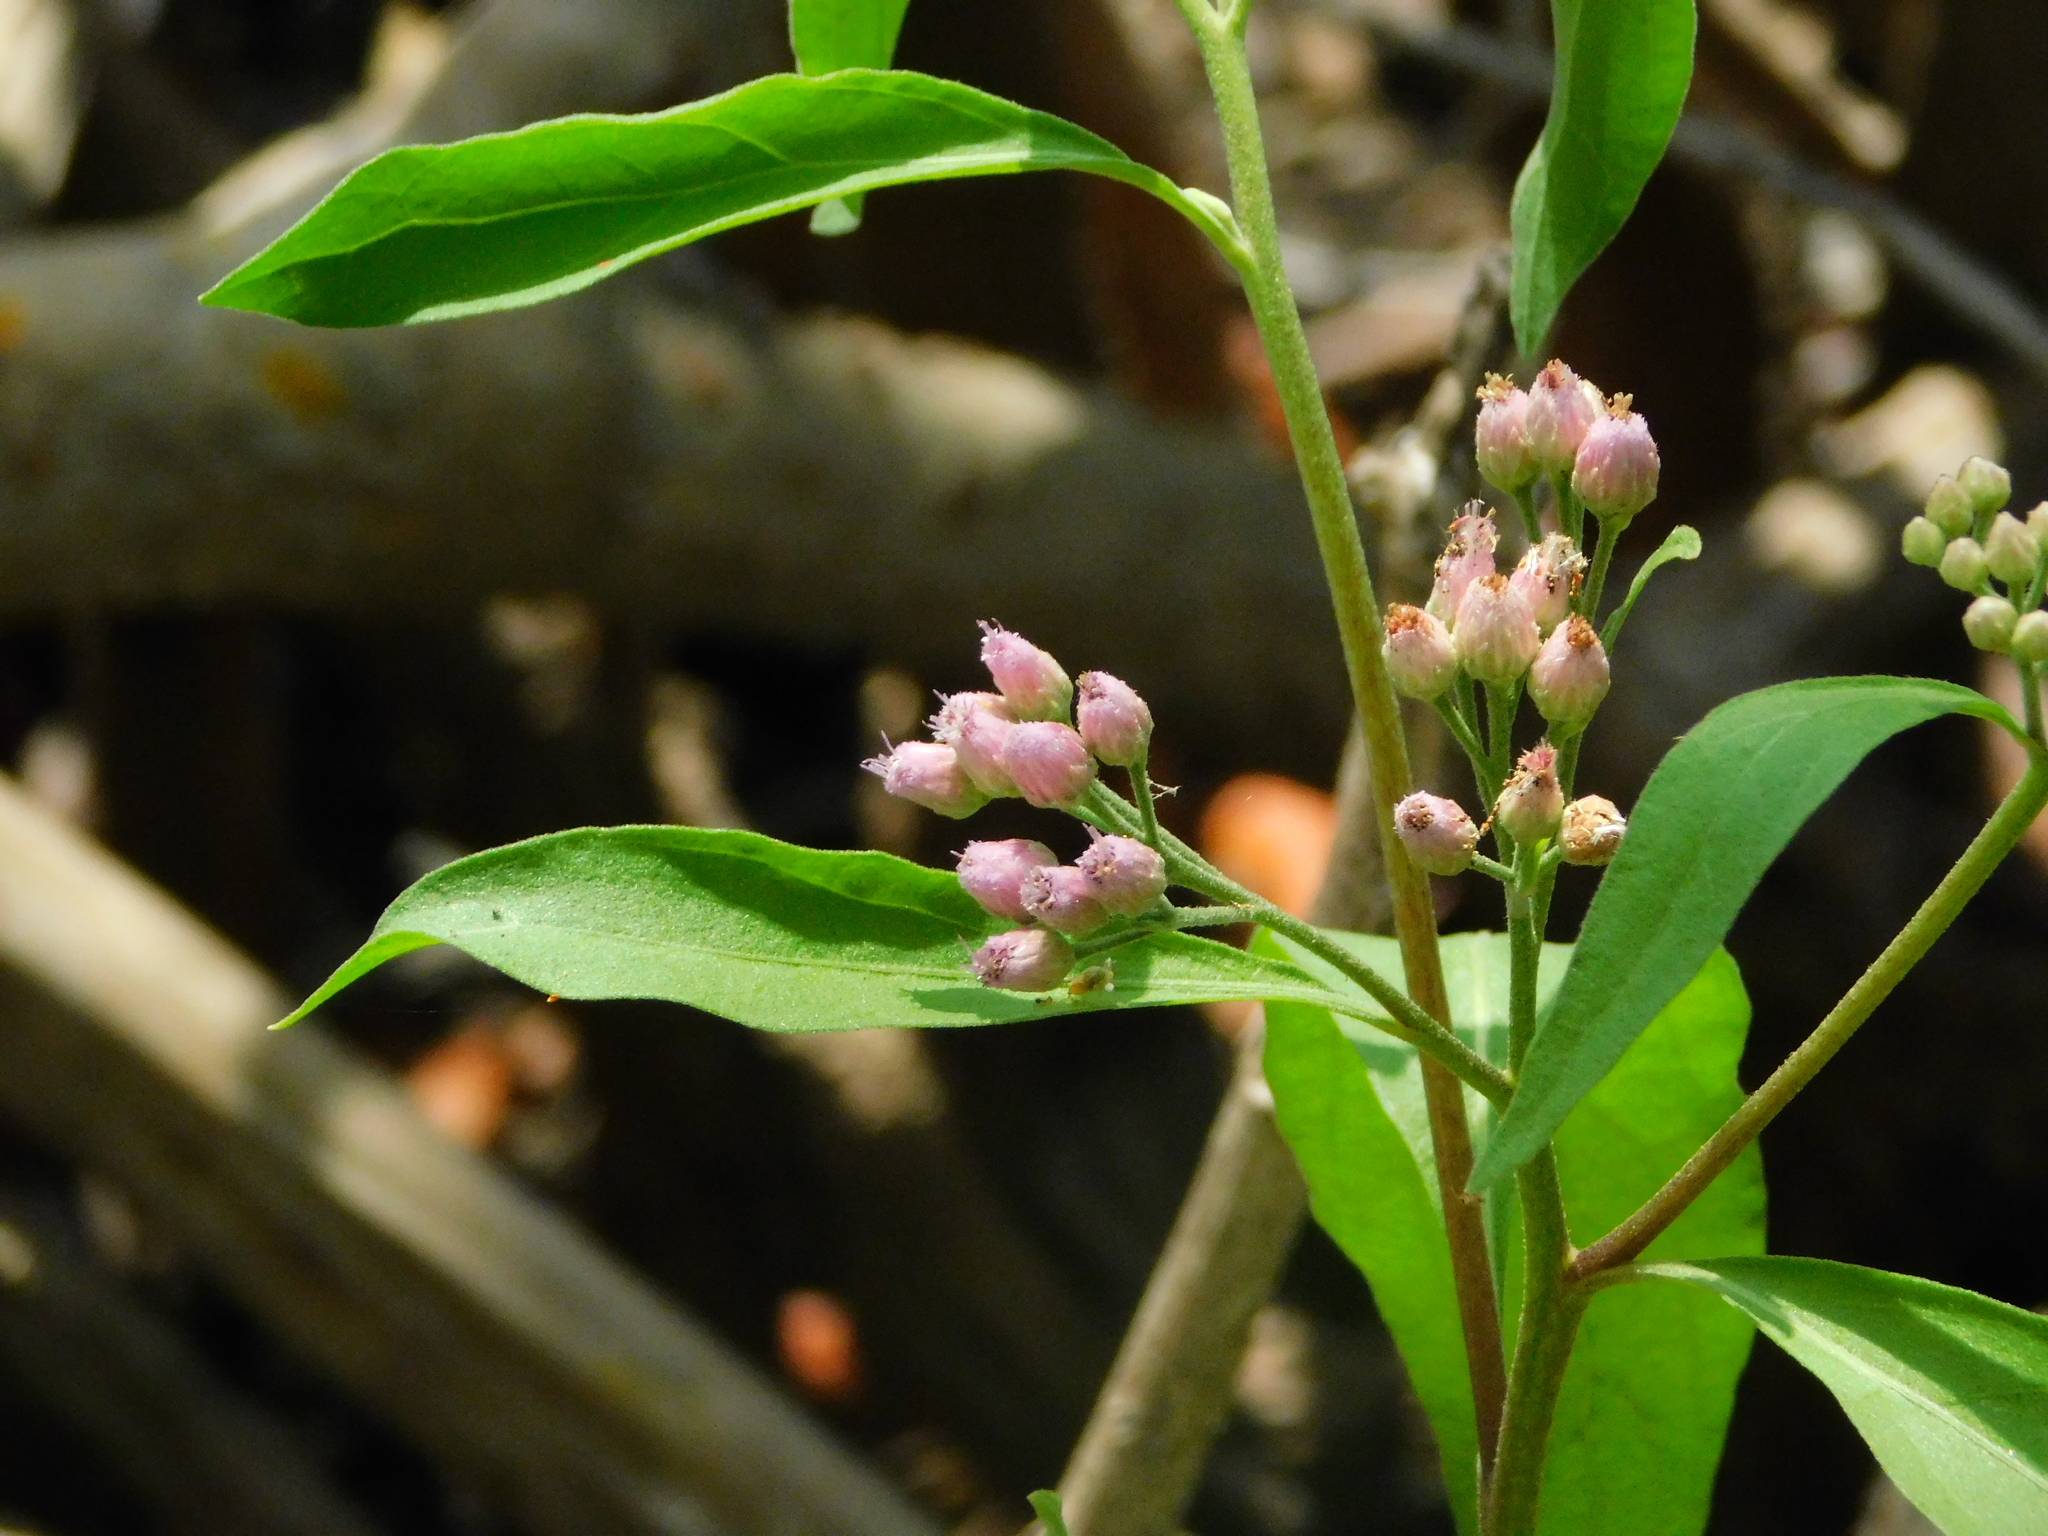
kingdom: Plantae
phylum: Tracheophyta
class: Magnoliopsida
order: Asterales
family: Asteraceae
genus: Pluchea
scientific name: Pluchea odorata
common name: Saltmarsh fleabane
